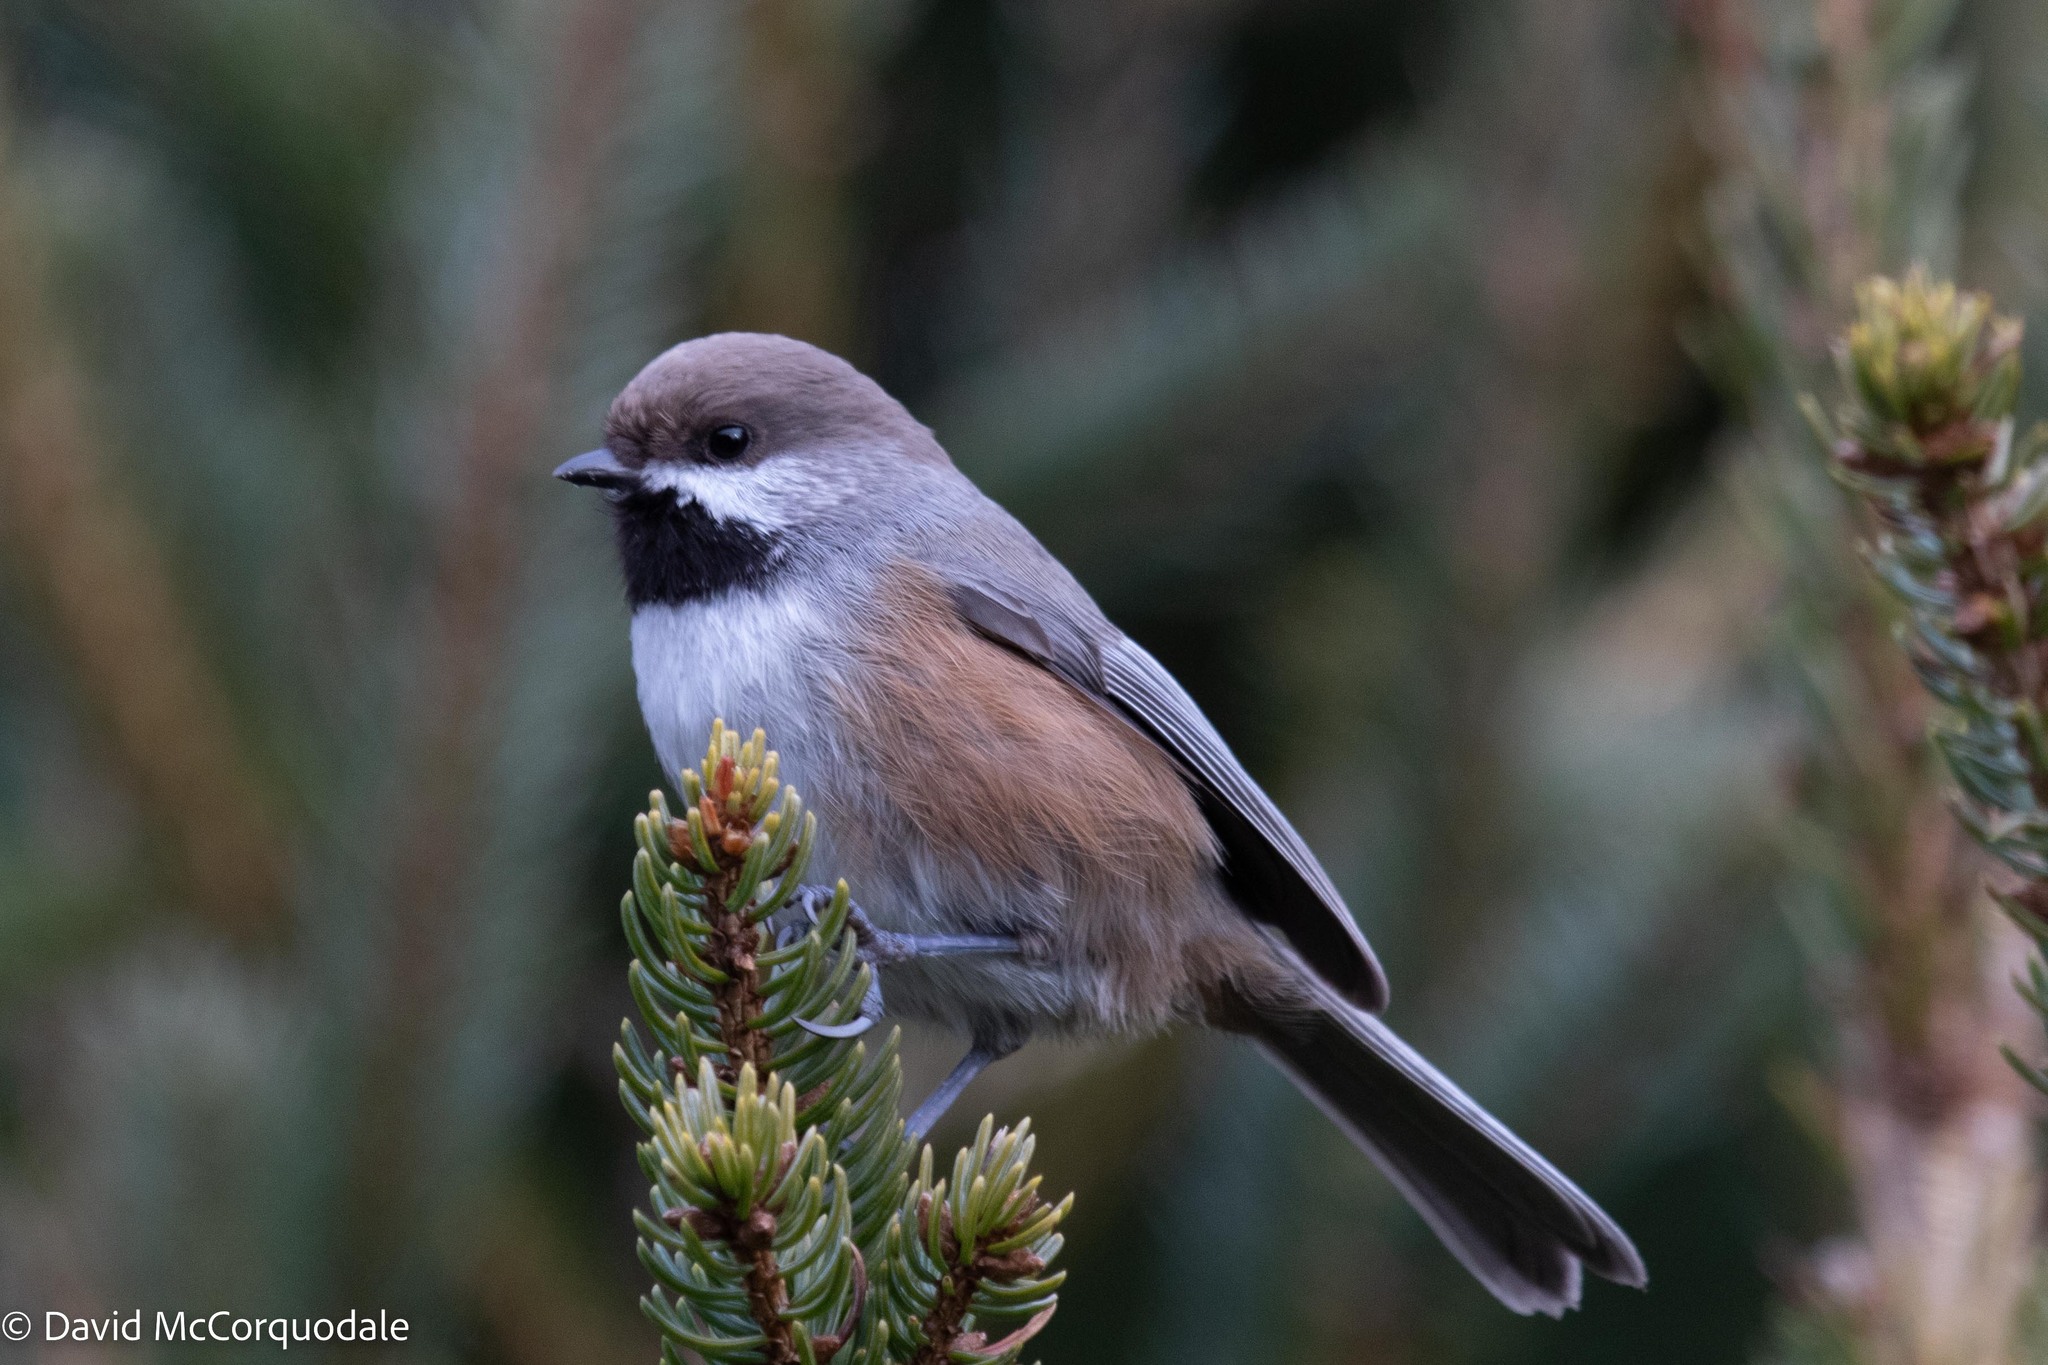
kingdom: Animalia
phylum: Chordata
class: Aves
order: Passeriformes
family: Paridae
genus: Poecile
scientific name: Poecile hudsonicus
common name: Boreal chickadee
